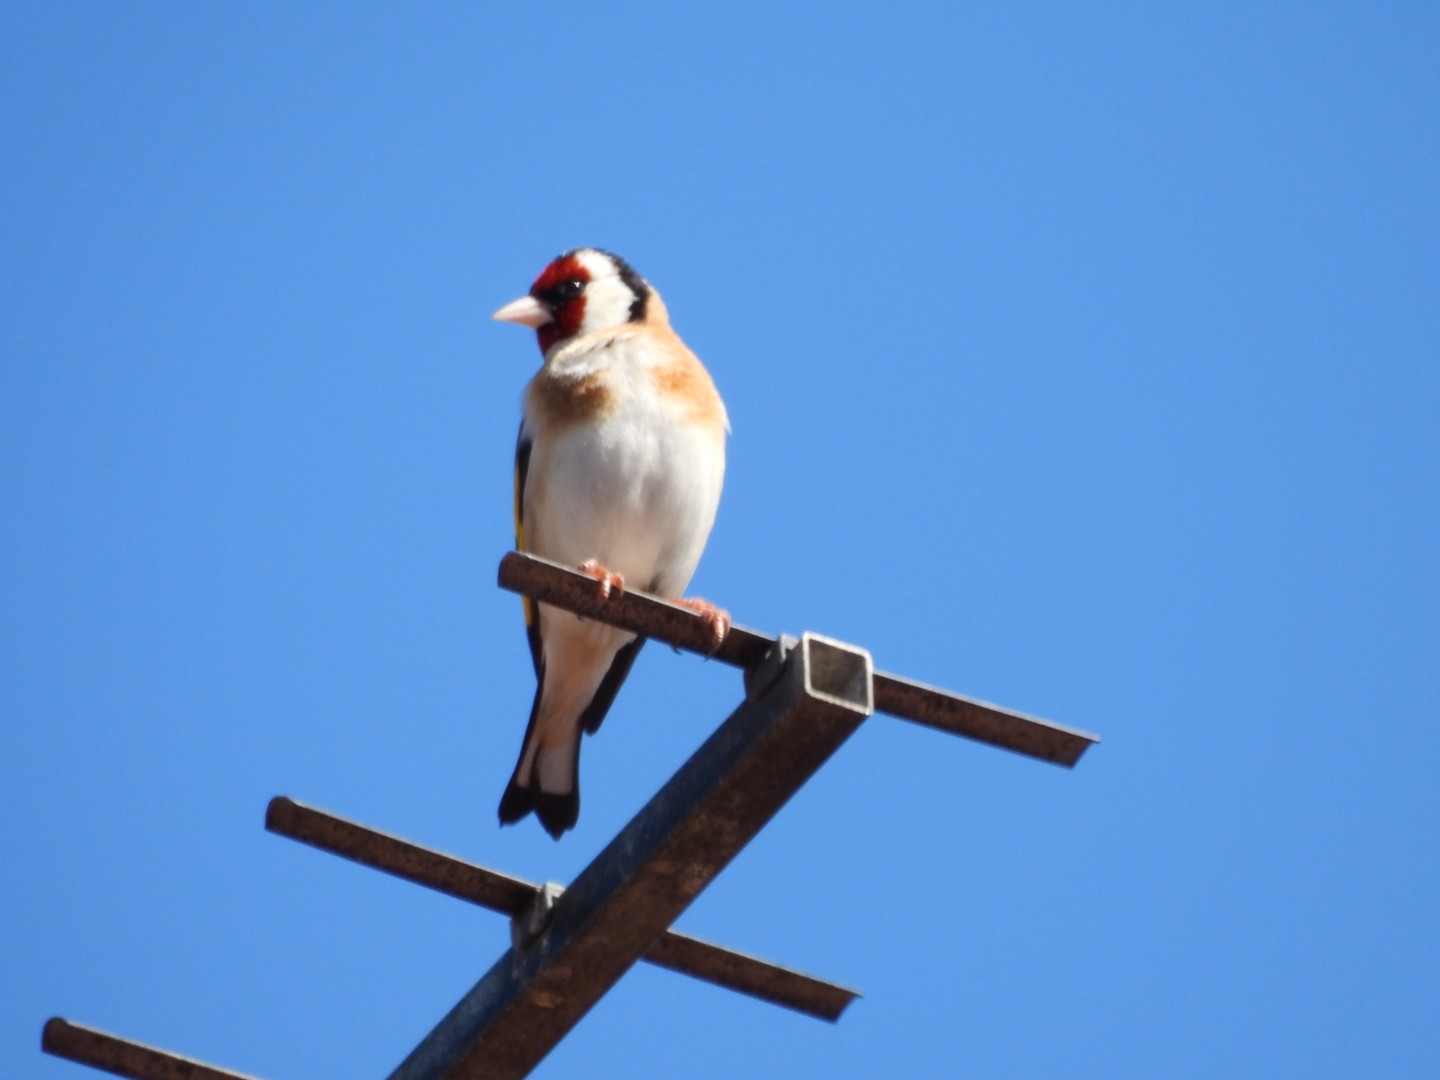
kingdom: Animalia
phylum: Chordata
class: Aves
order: Passeriformes
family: Fringillidae
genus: Carduelis
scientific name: Carduelis carduelis
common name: European goldfinch
